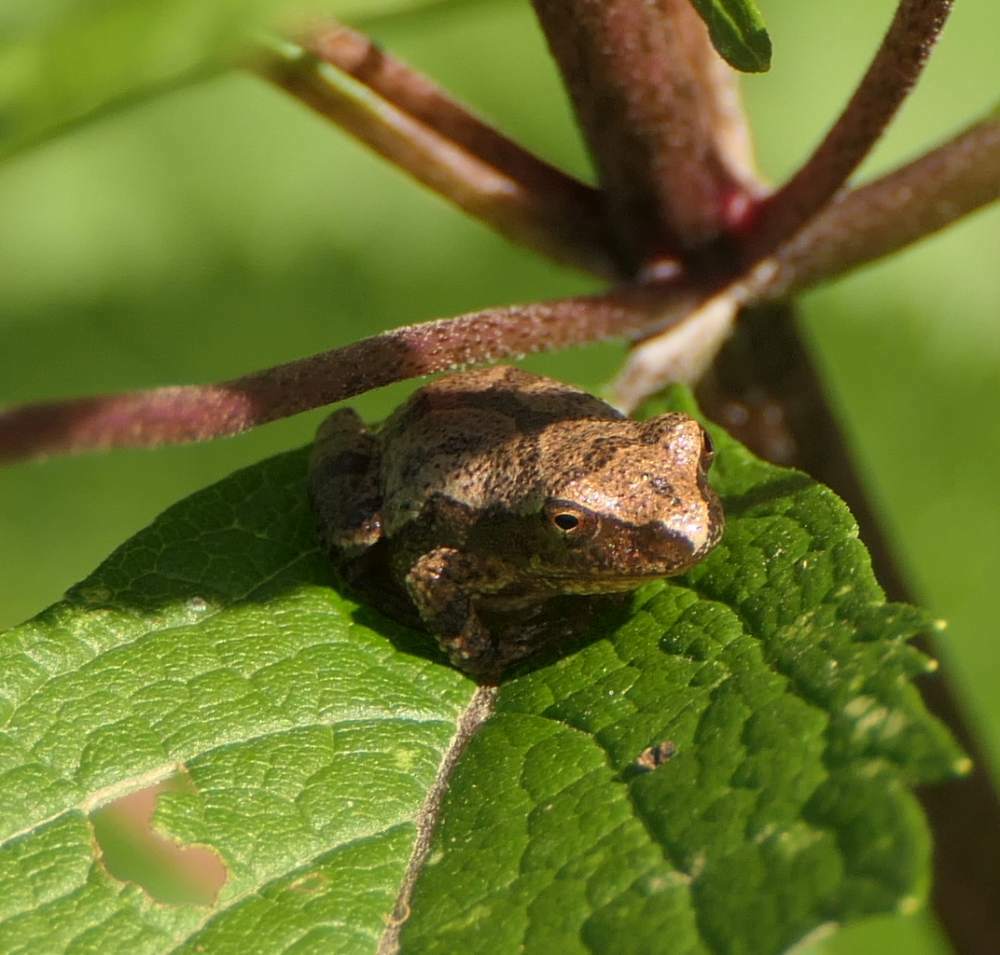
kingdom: Animalia
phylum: Chordata
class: Amphibia
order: Anura
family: Hylidae
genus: Pseudacris
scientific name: Pseudacris crucifer
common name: Spring peeper
